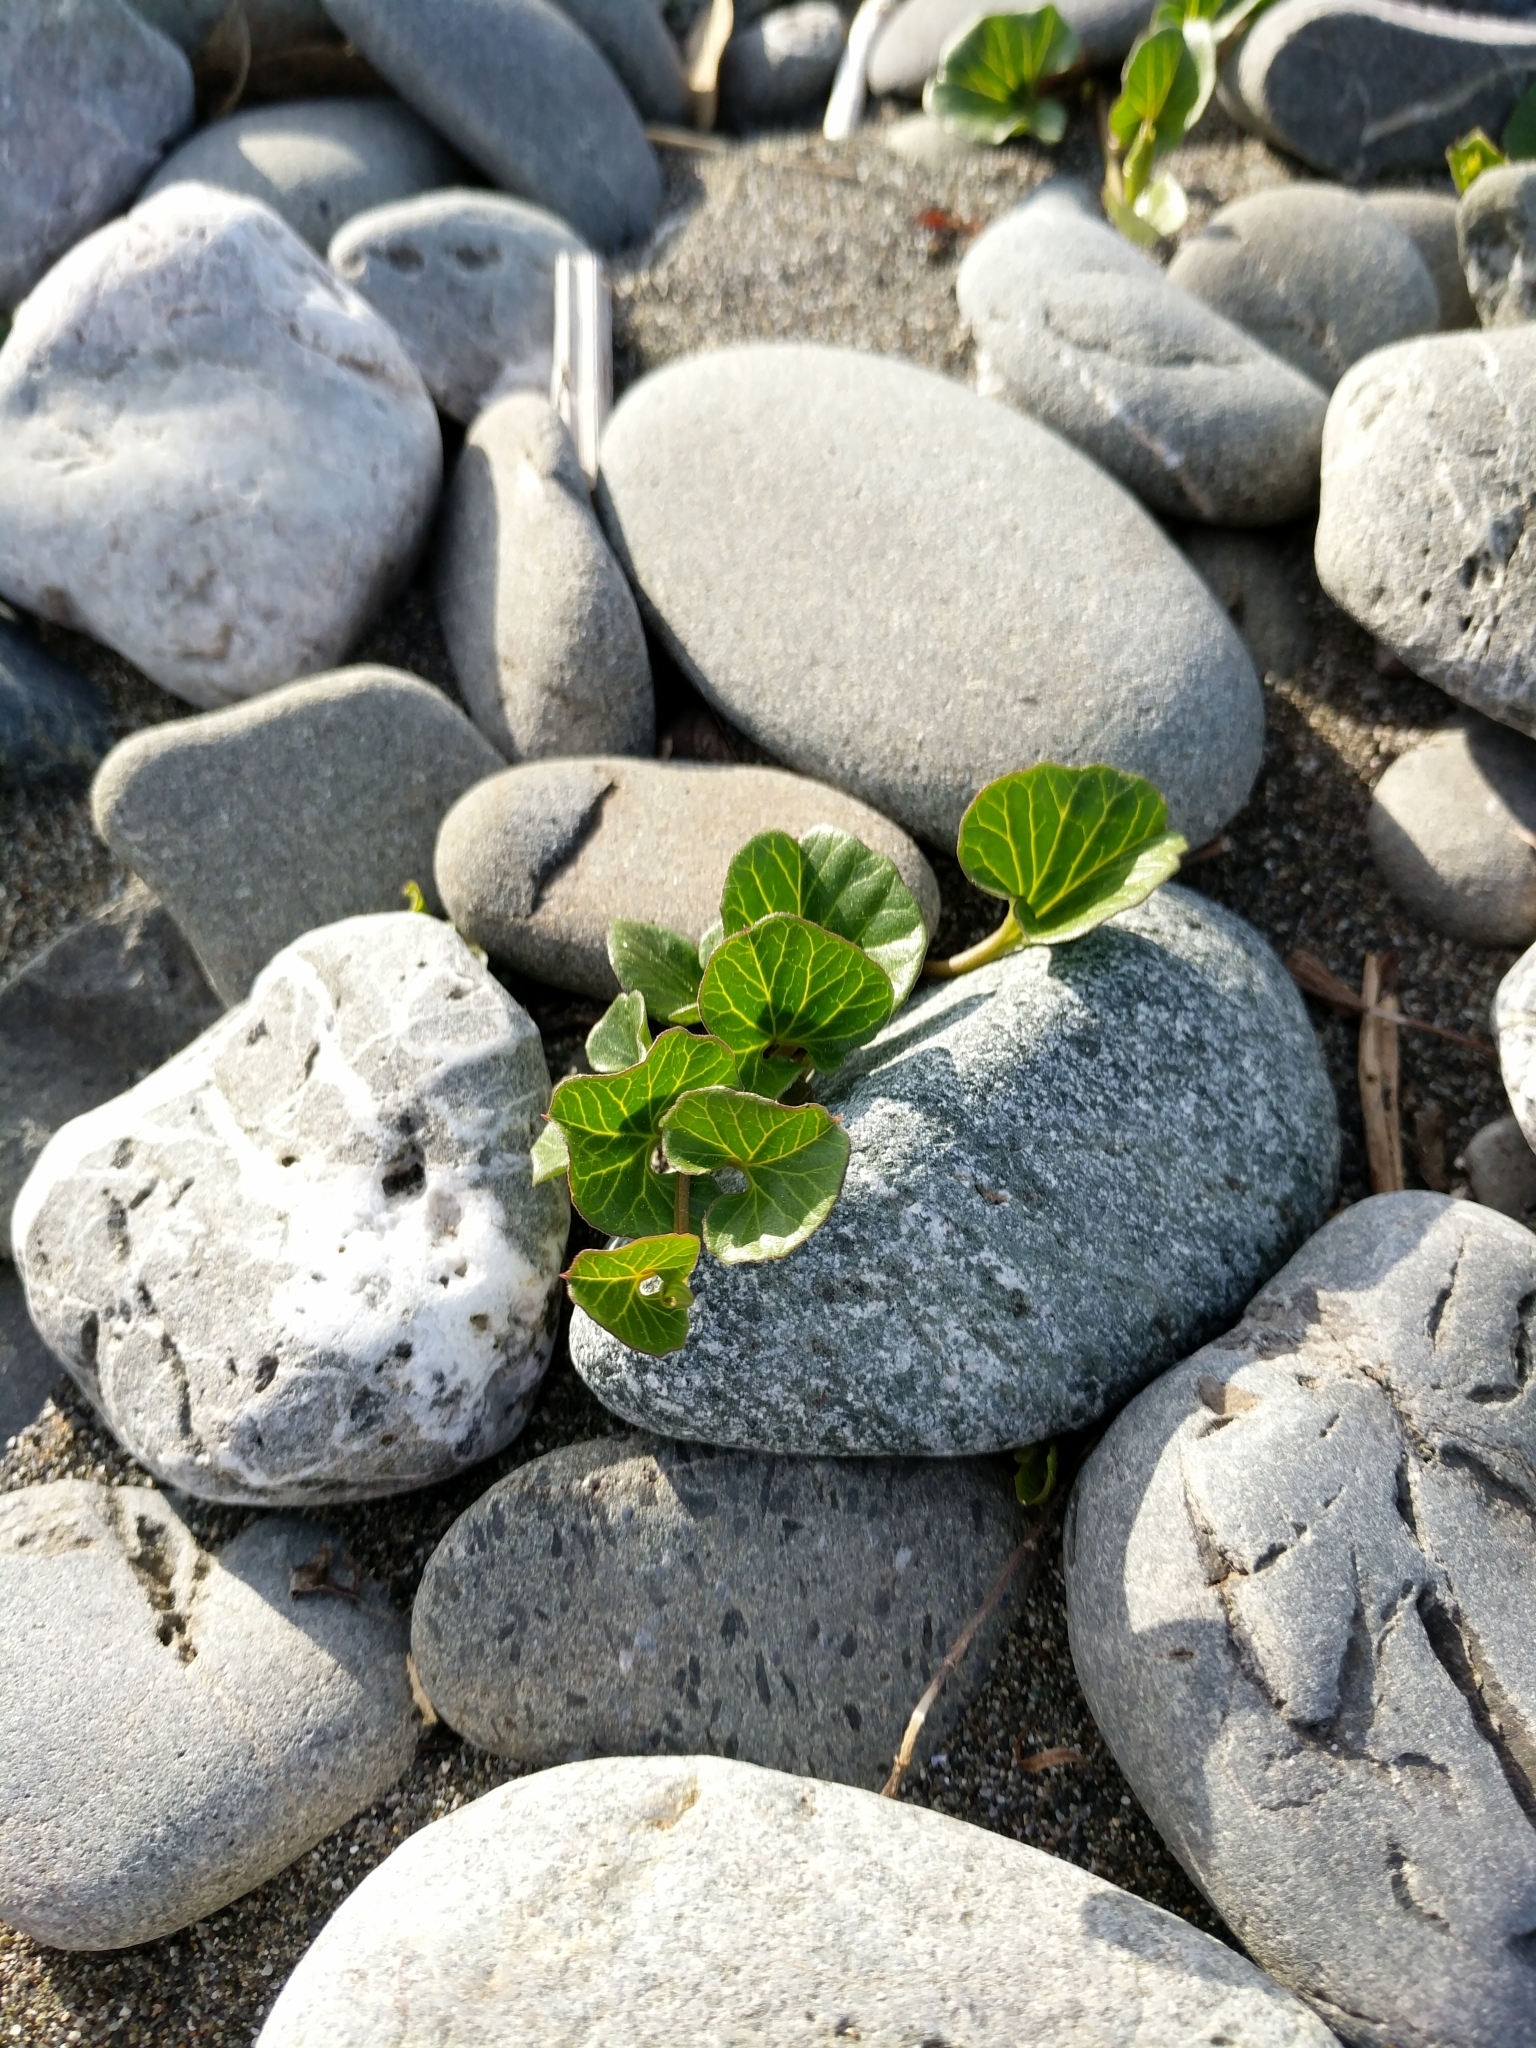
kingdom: Plantae
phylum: Tracheophyta
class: Magnoliopsida
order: Solanales
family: Convolvulaceae
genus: Calystegia
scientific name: Calystegia soldanella
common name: Sea bindweed
